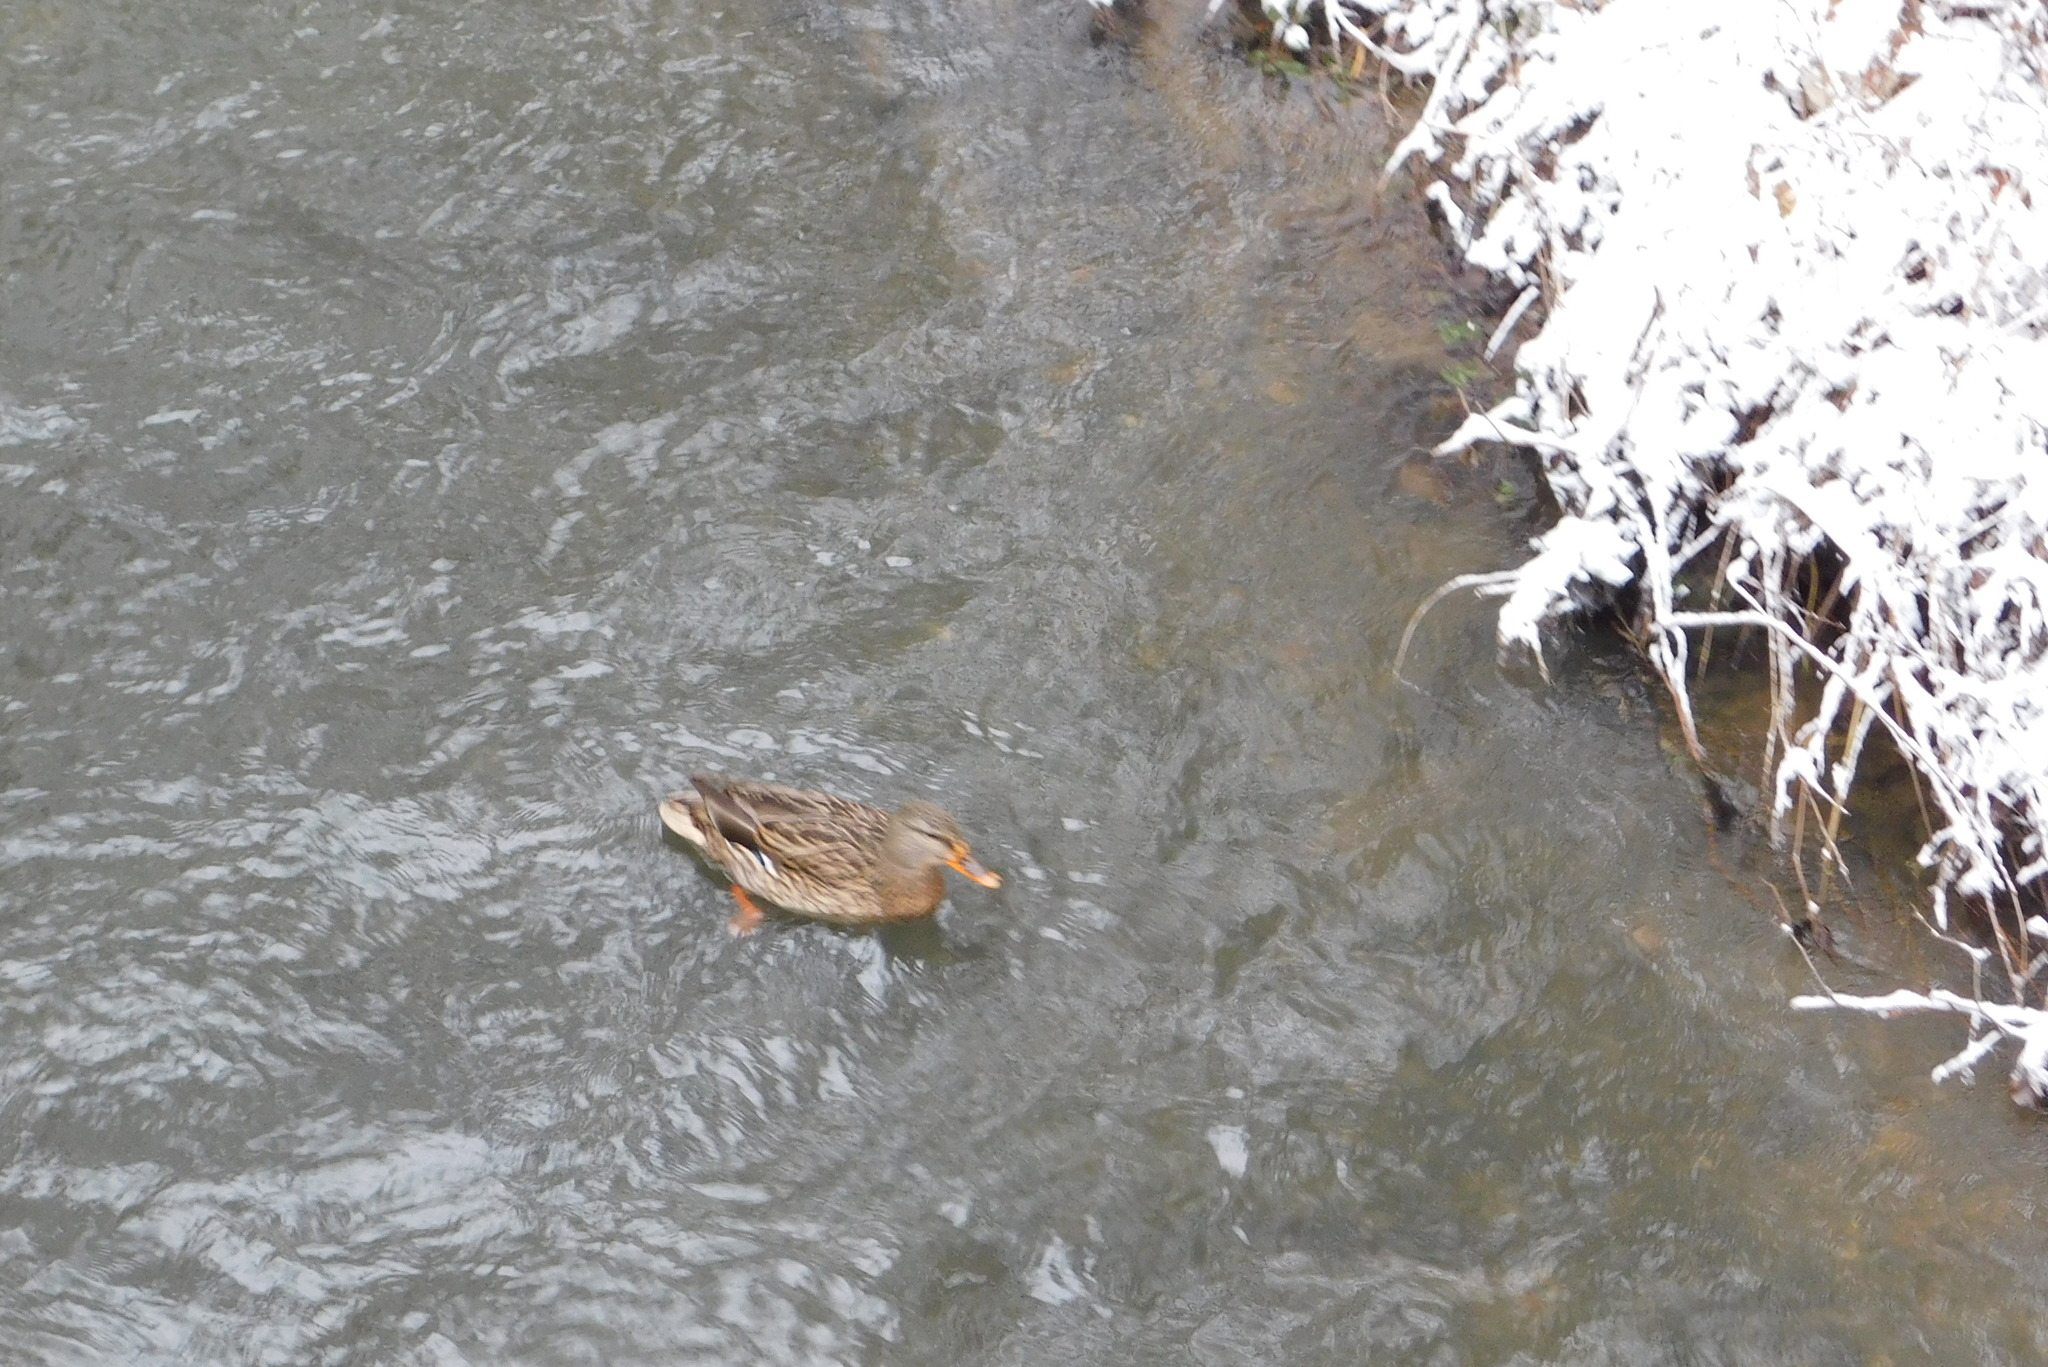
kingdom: Animalia
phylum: Chordata
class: Aves
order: Anseriformes
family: Anatidae
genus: Anas
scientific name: Anas platyrhynchos
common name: Mallard
